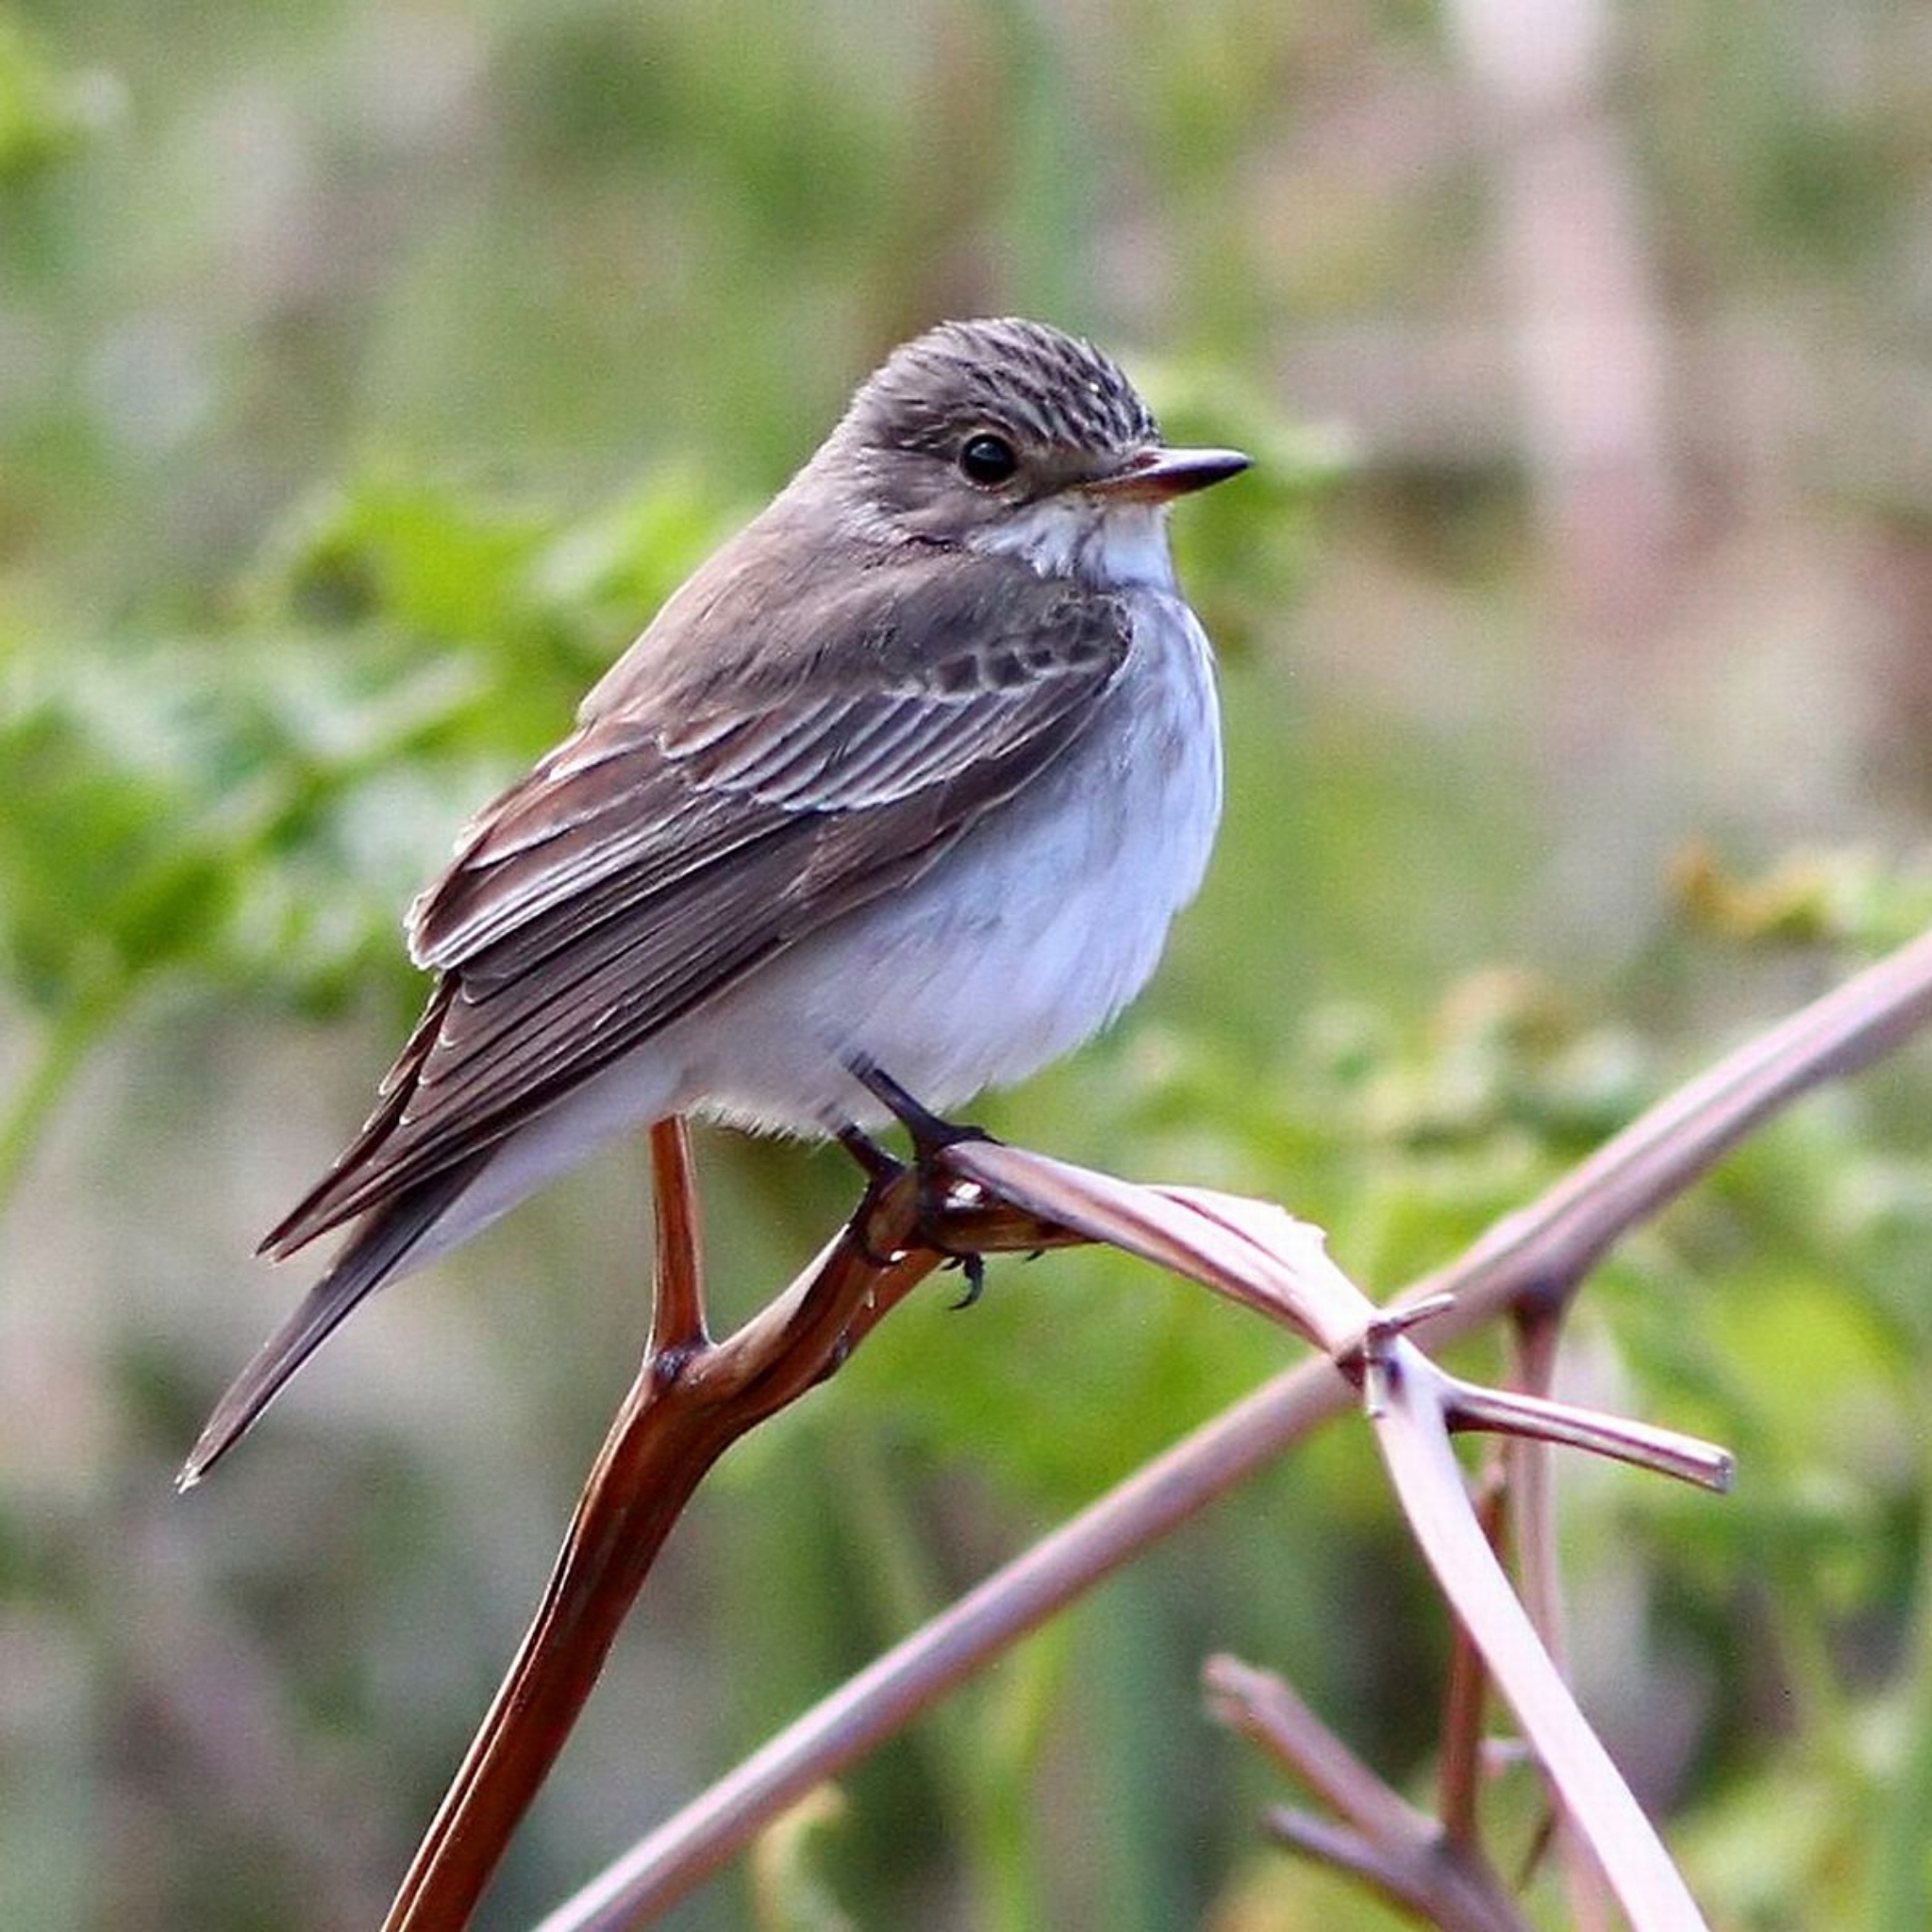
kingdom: Animalia
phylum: Chordata
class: Aves
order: Passeriformes
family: Muscicapidae
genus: Muscicapa
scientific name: Muscicapa striata
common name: Spotted flycatcher
